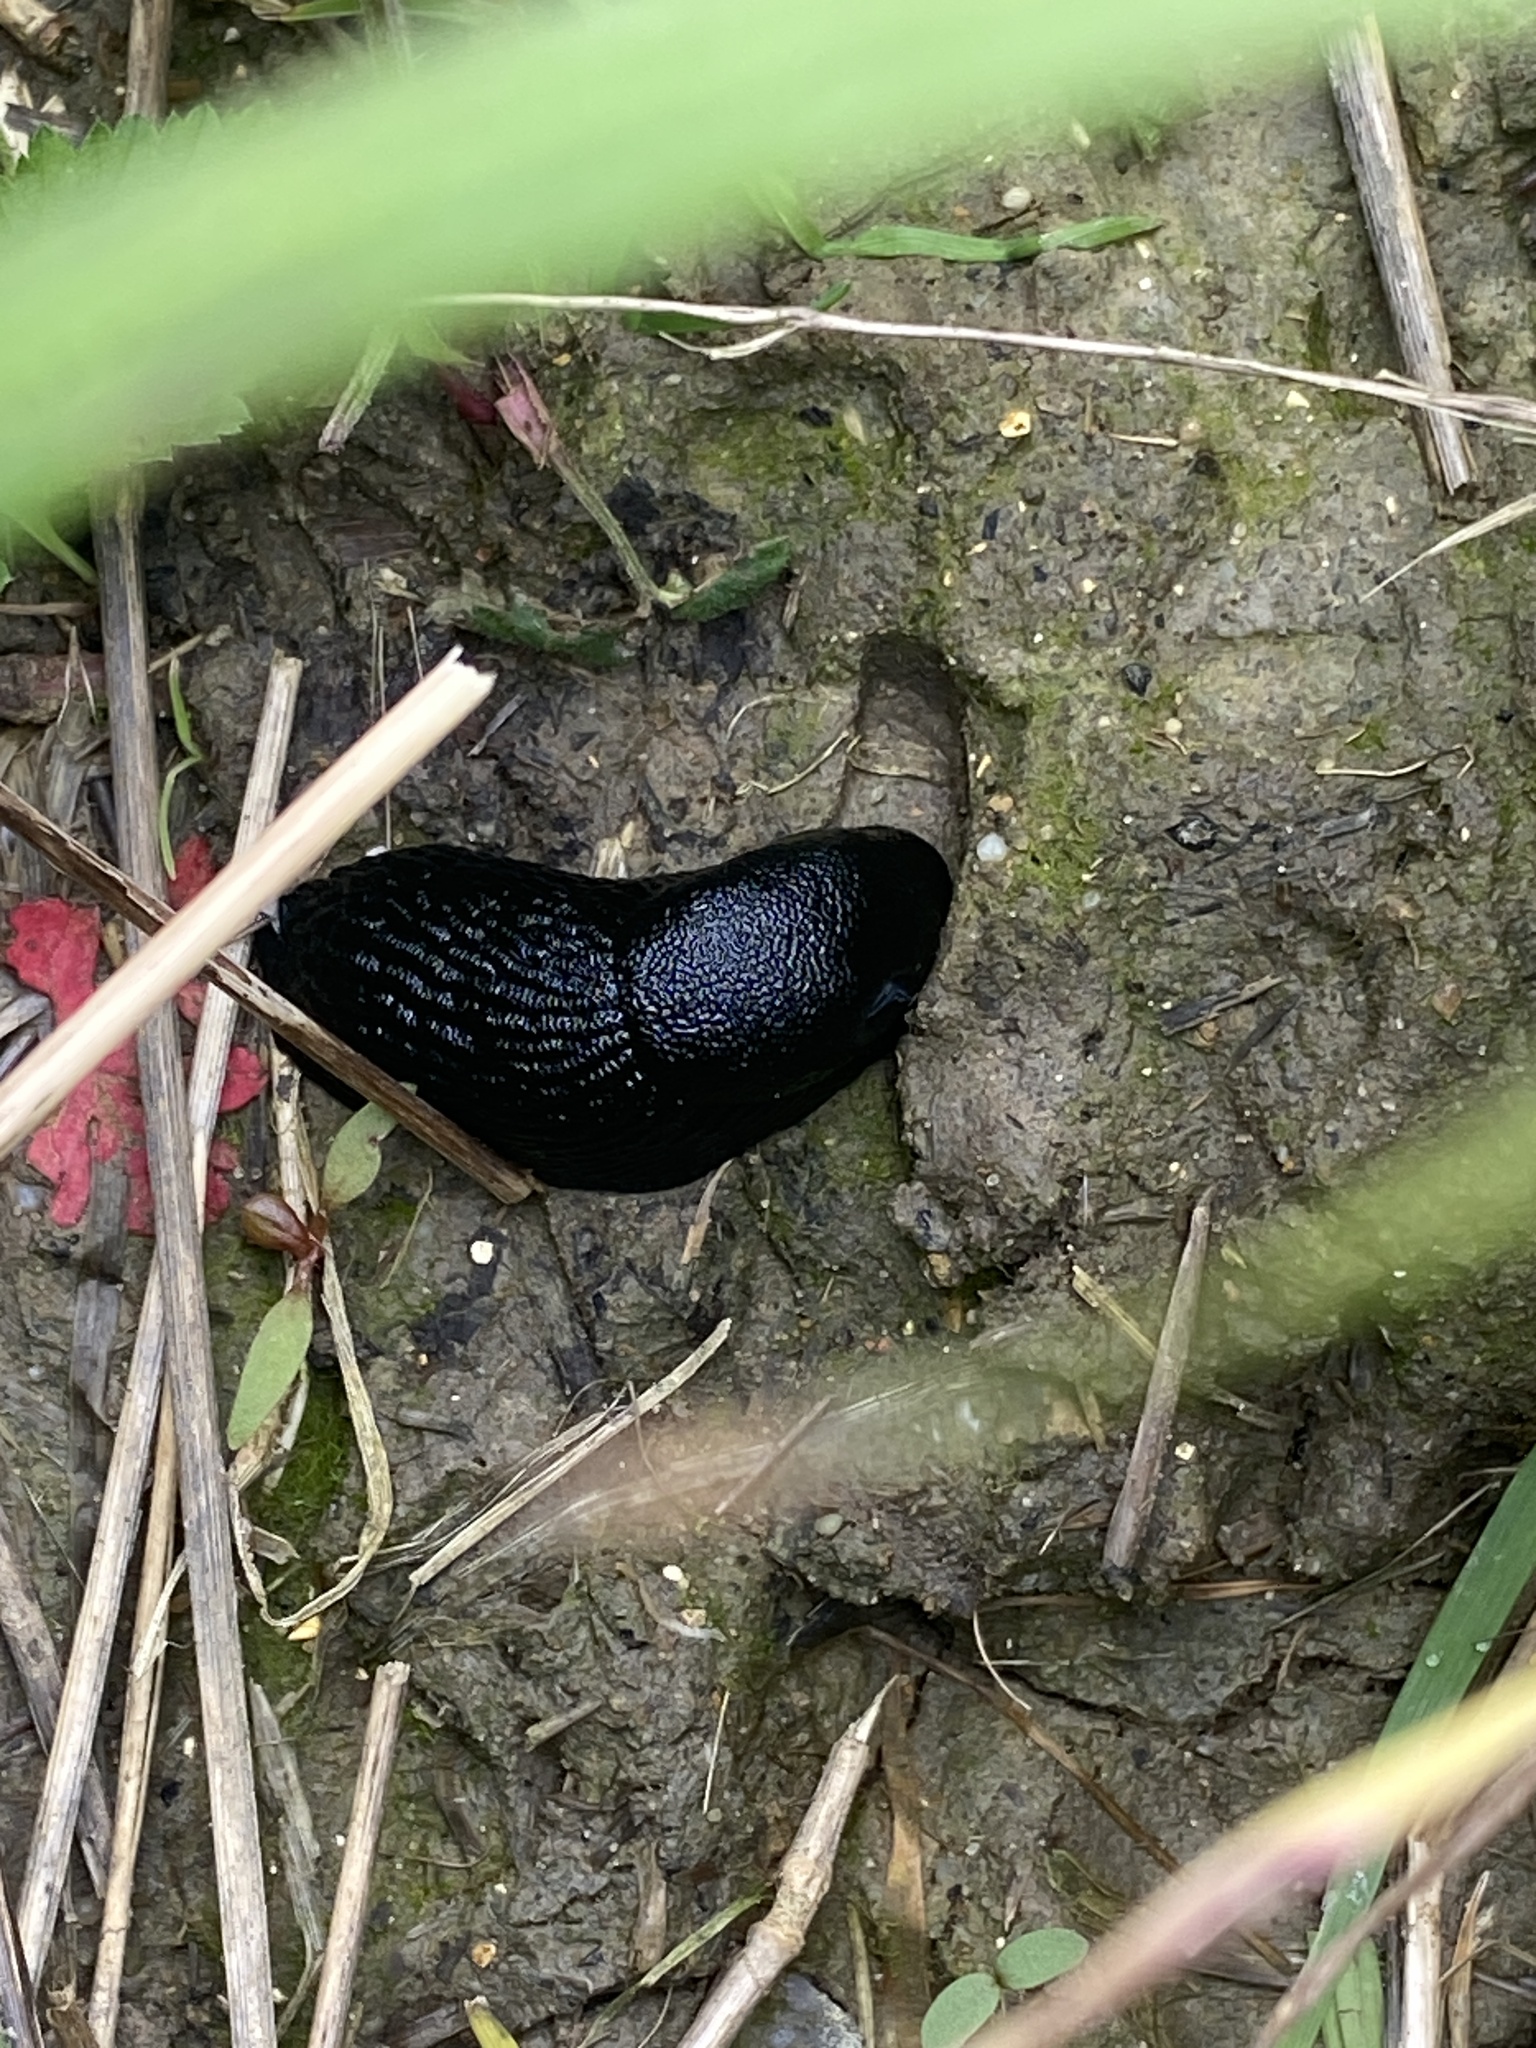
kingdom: Animalia
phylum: Mollusca
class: Gastropoda
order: Stylommatophora
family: Arionidae
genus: Arion
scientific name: Arion ater
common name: Black arion
